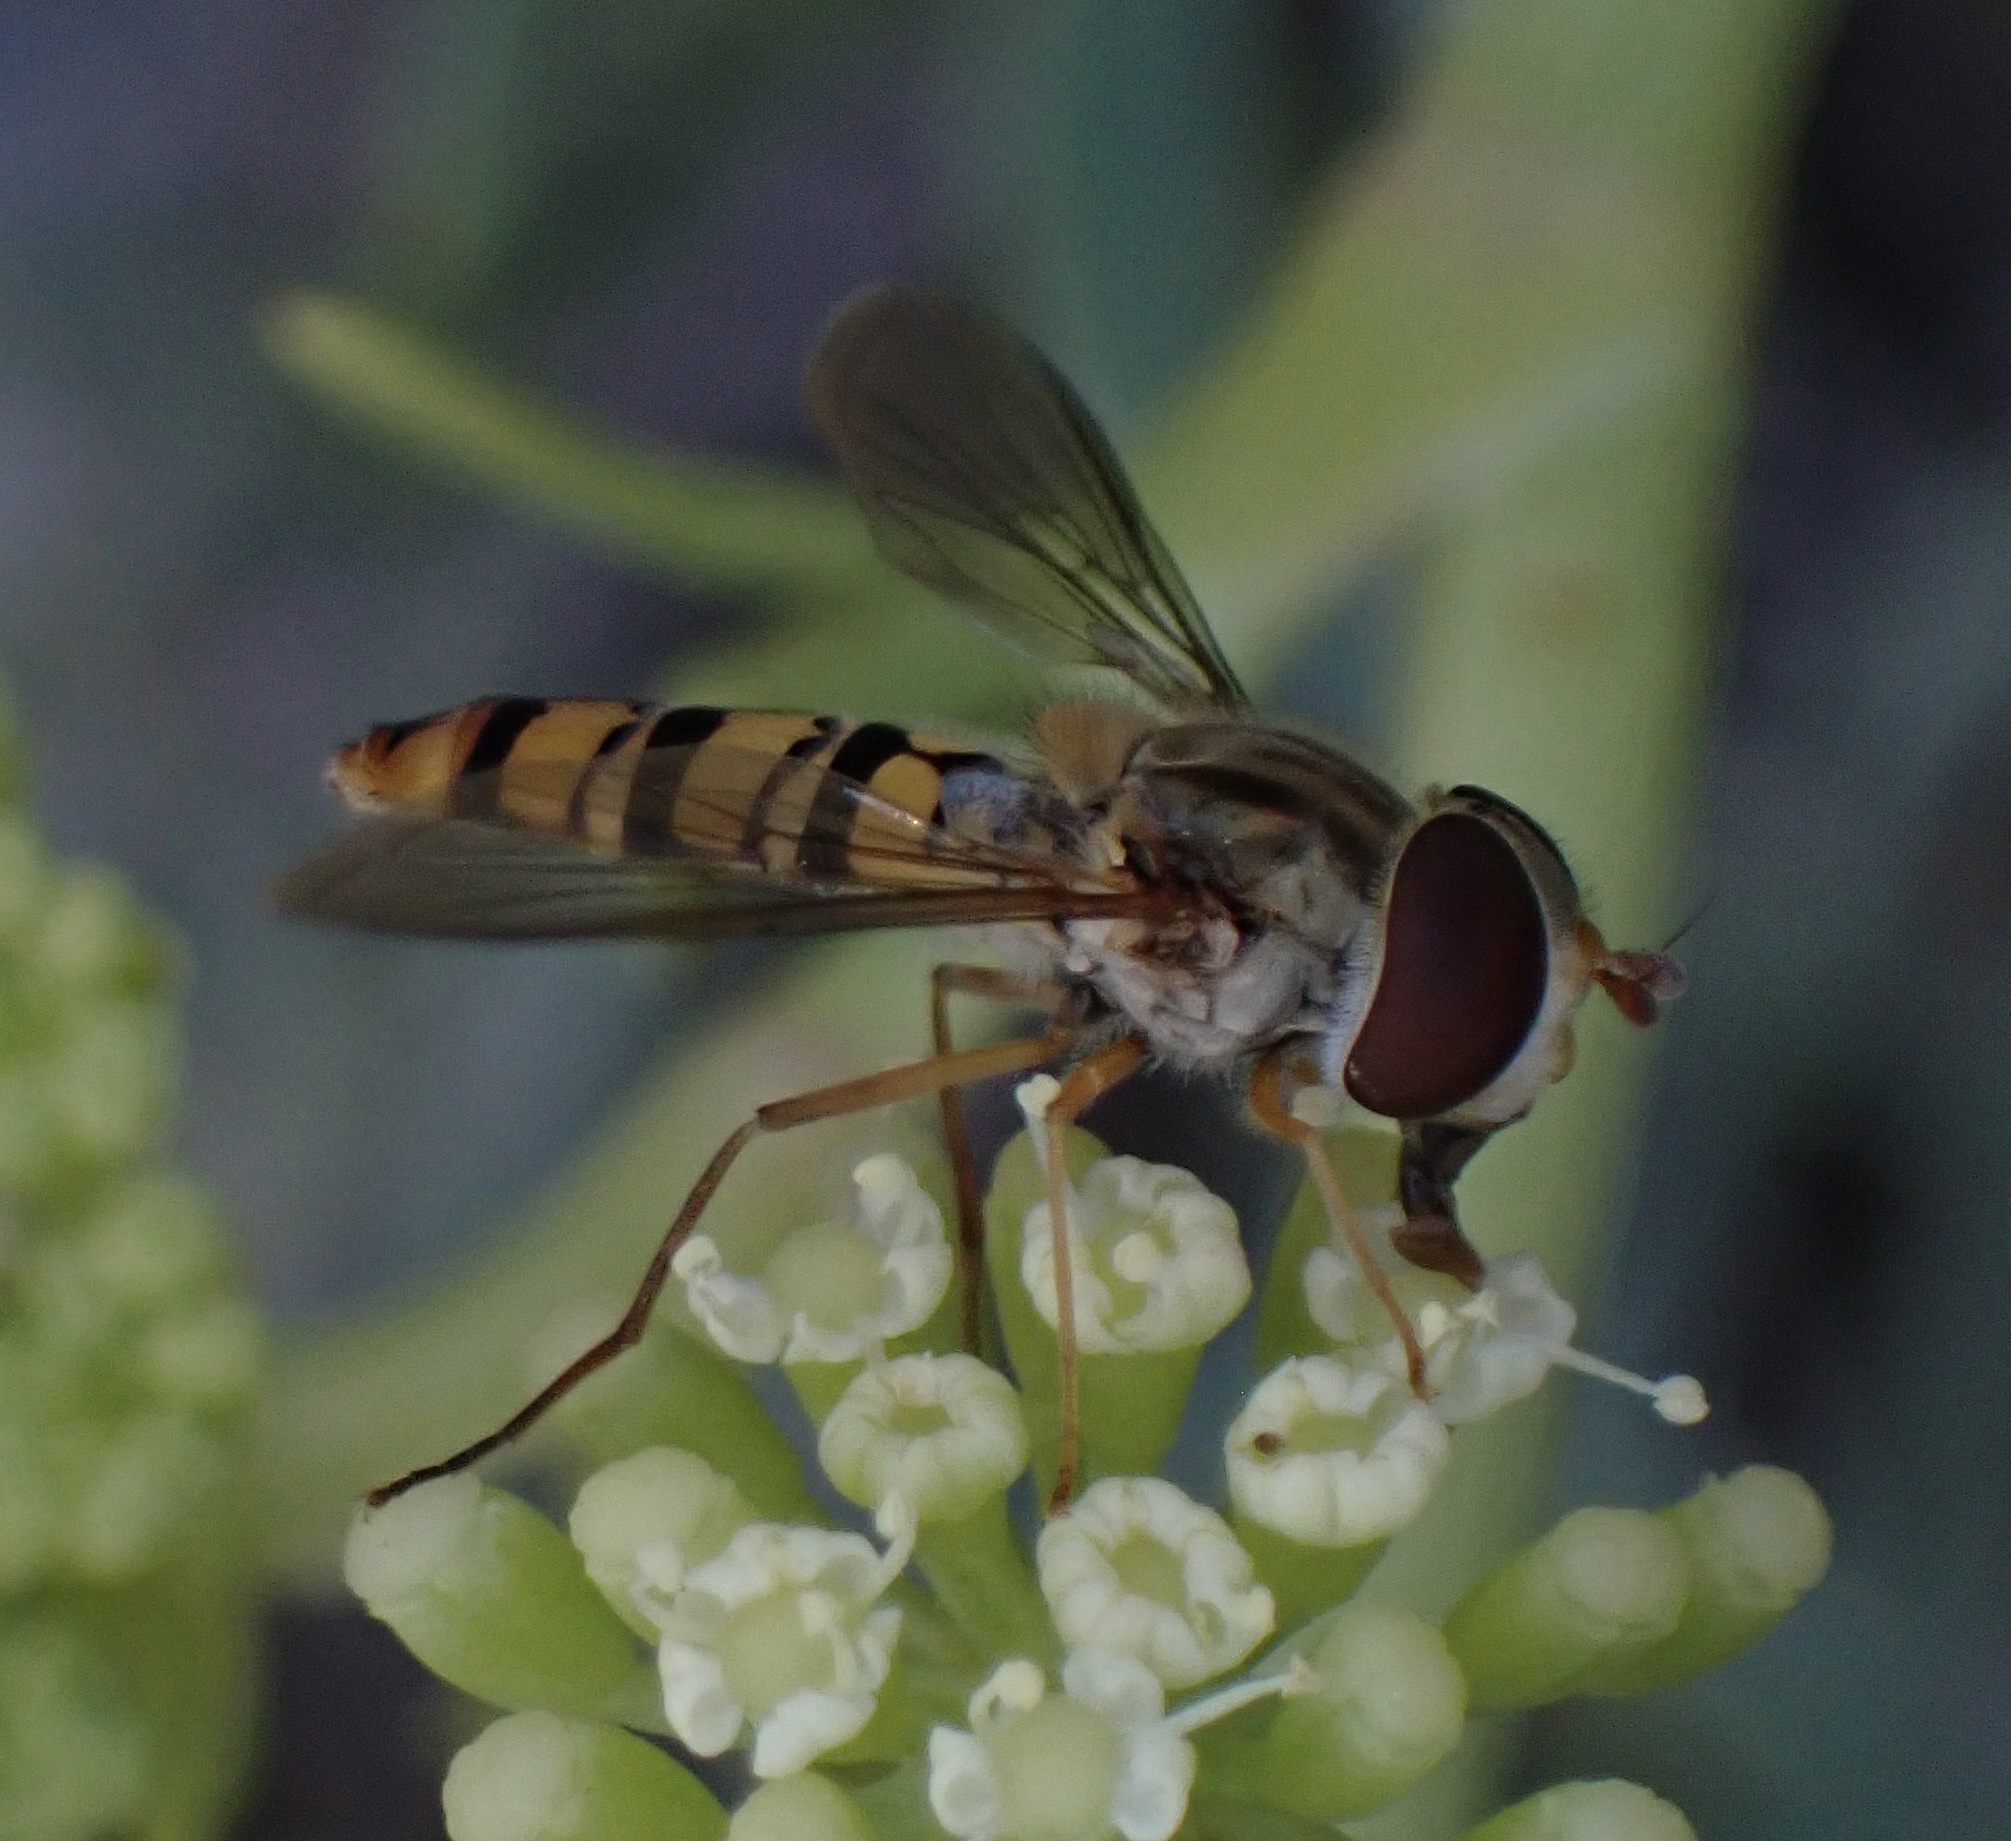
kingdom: Animalia
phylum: Arthropoda
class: Insecta
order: Diptera
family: Syrphidae
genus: Episyrphus
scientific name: Episyrphus balteatus
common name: Marmalade hoverfly
